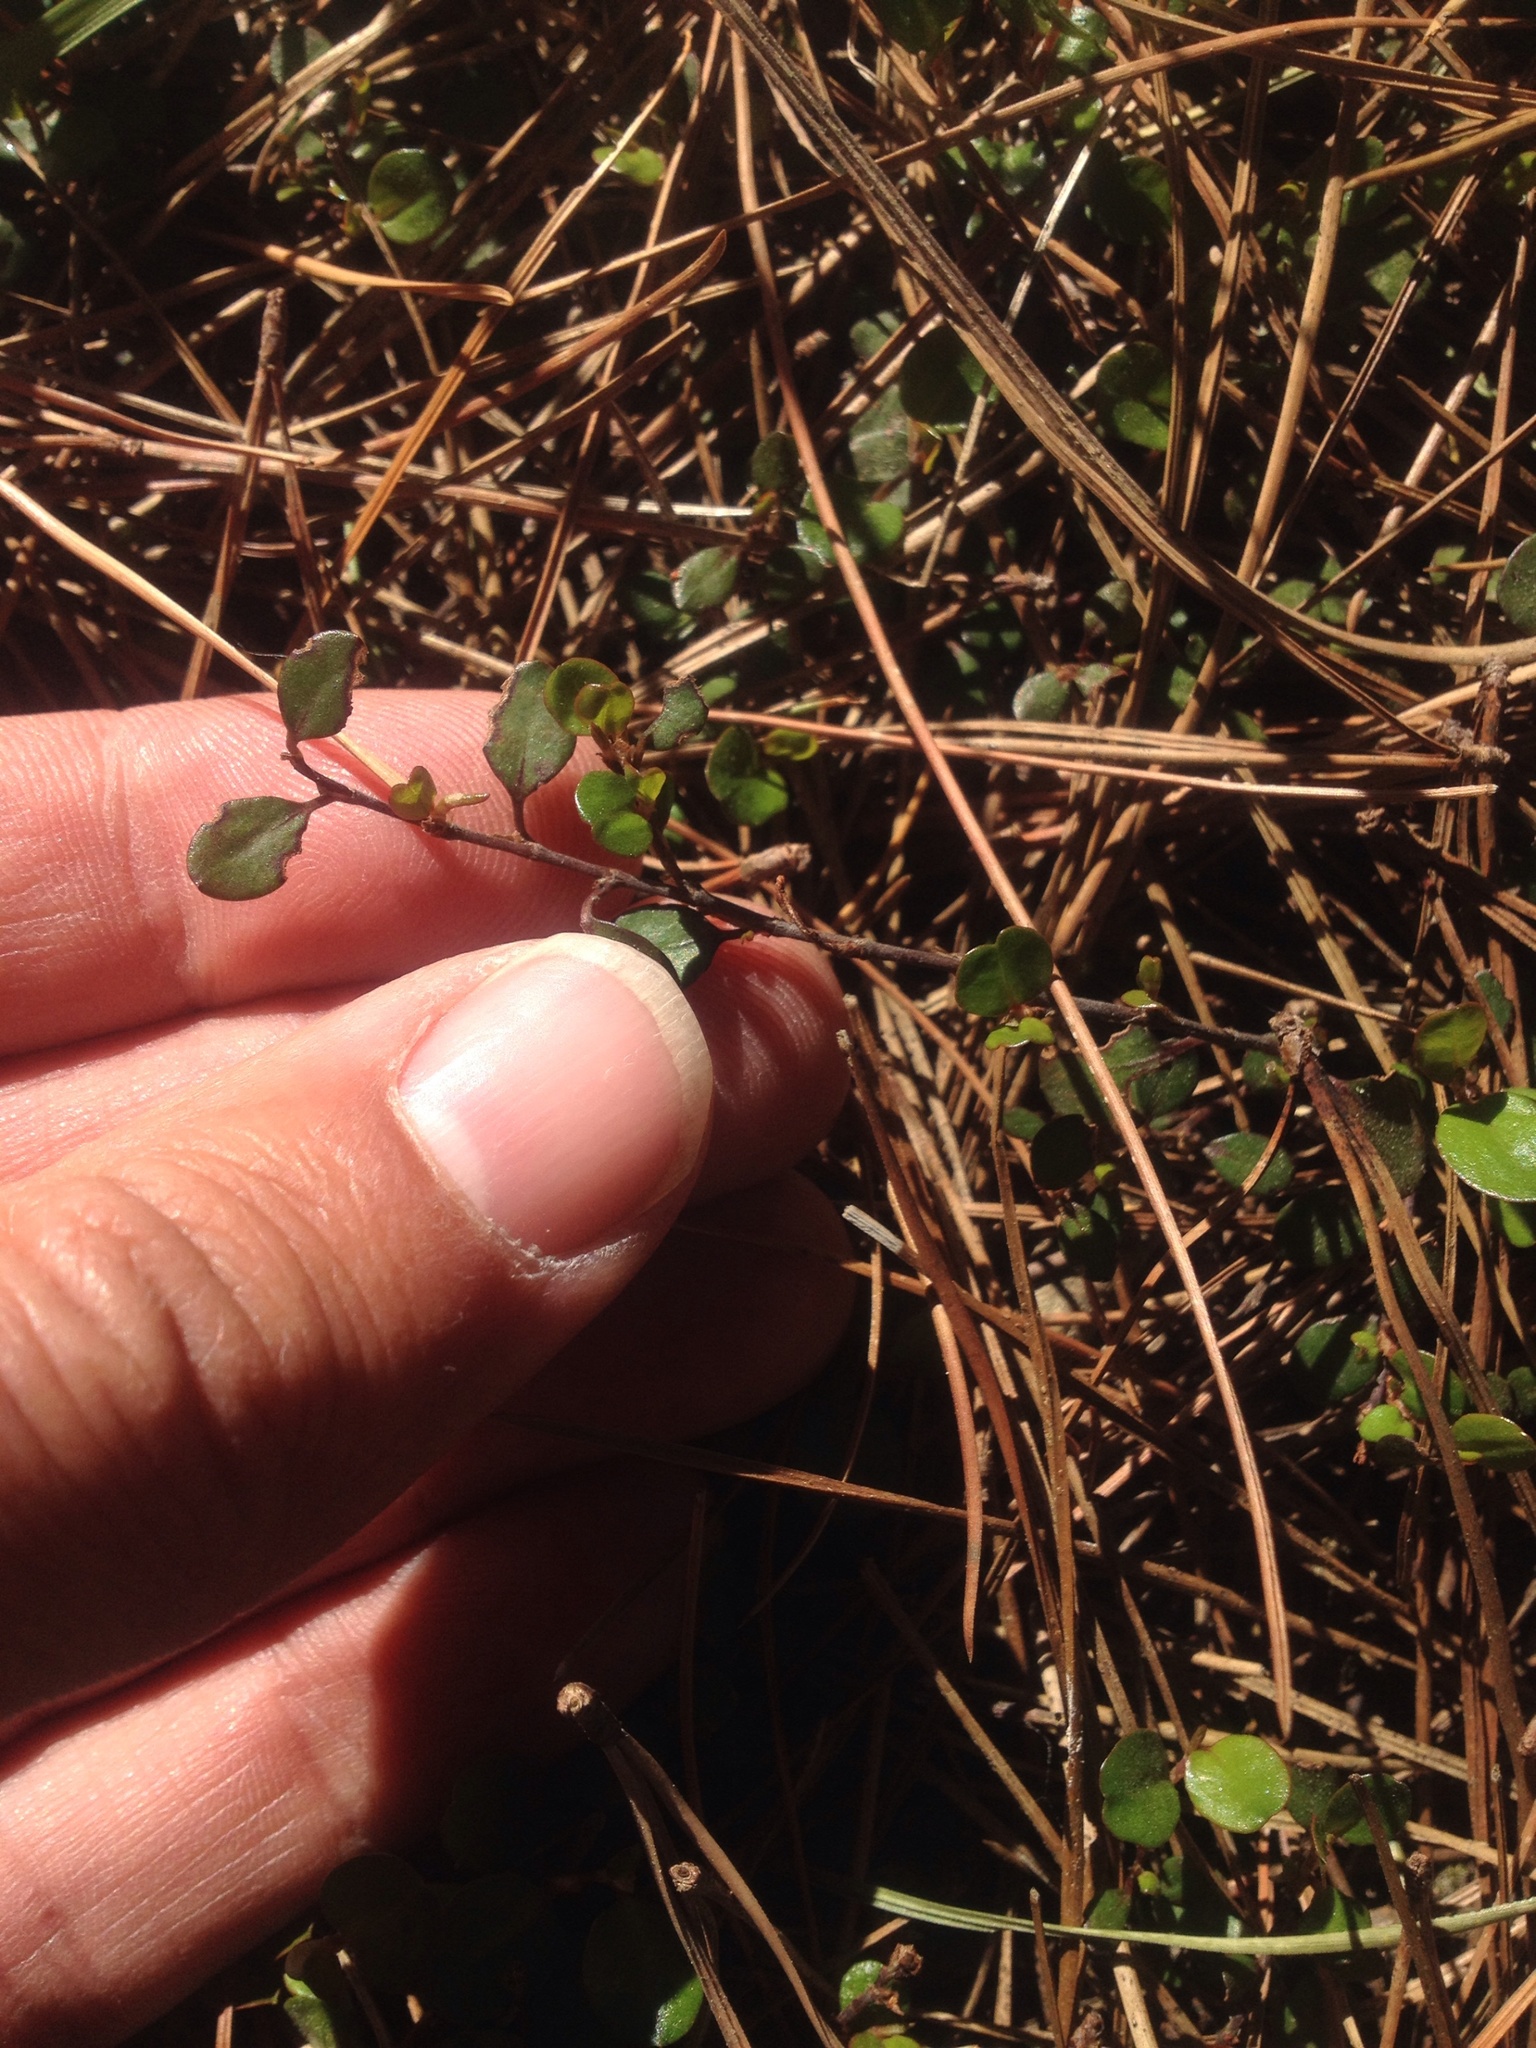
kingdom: Plantae
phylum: Tracheophyta
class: Magnoliopsida
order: Caryophyllales
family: Polygonaceae
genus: Muehlenbeckia
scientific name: Muehlenbeckia axillaris
